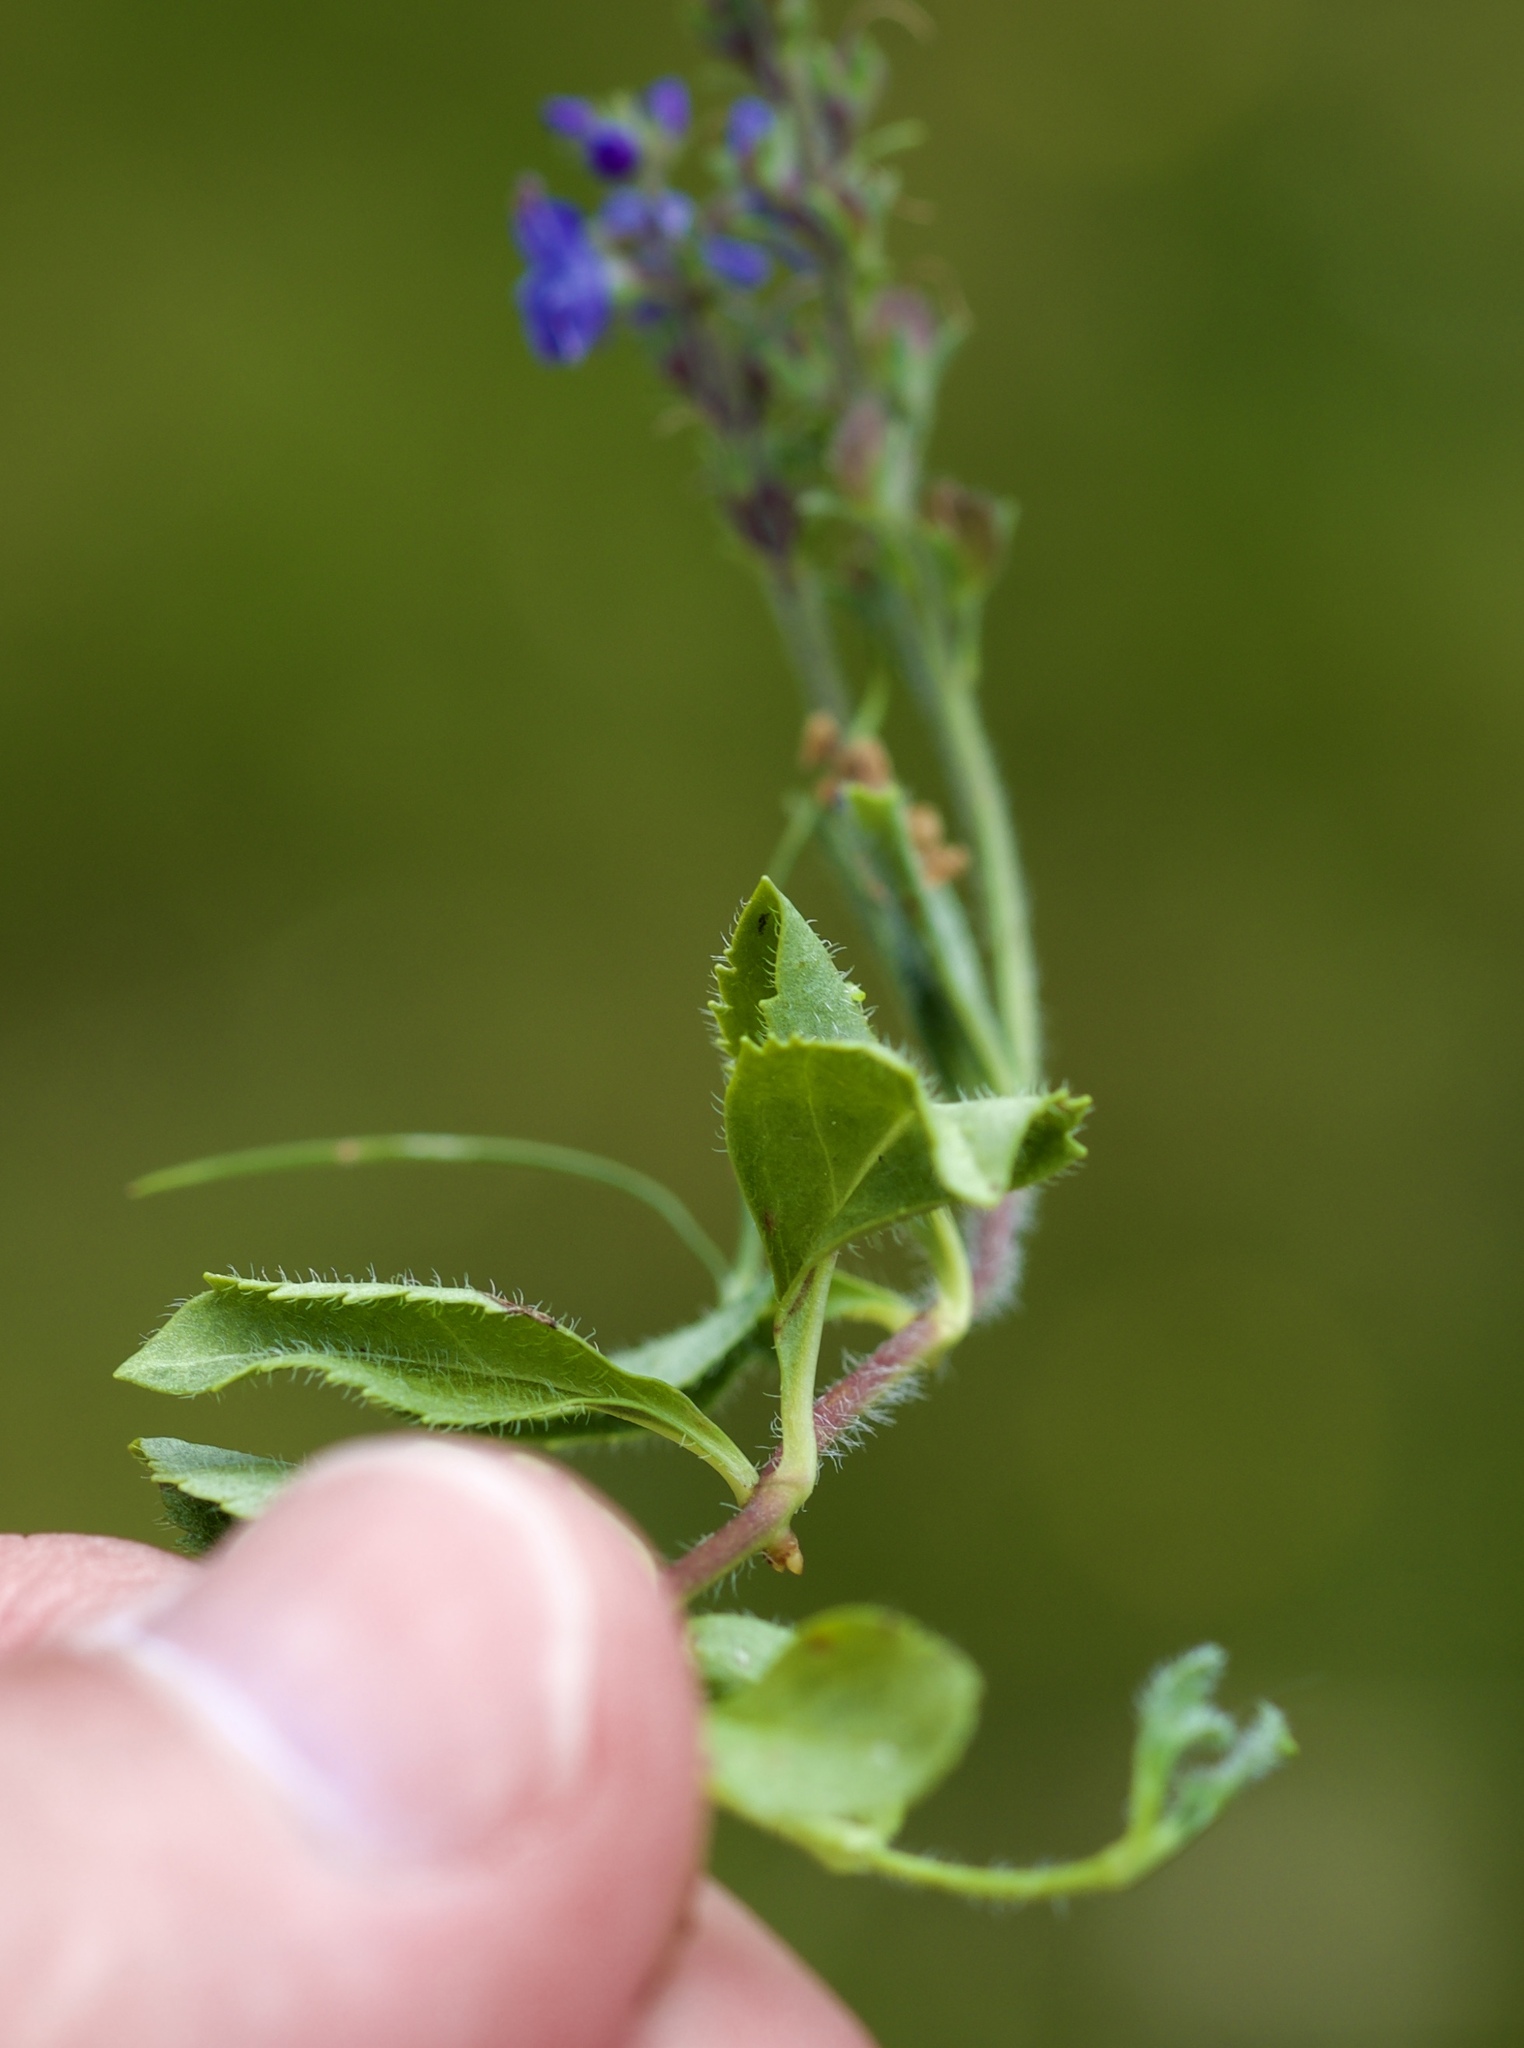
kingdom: Plantae
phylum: Tracheophyta
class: Magnoliopsida
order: Lamiales
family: Plantaginaceae
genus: Veronica
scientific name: Veronica officinalis
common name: Common speedwell
